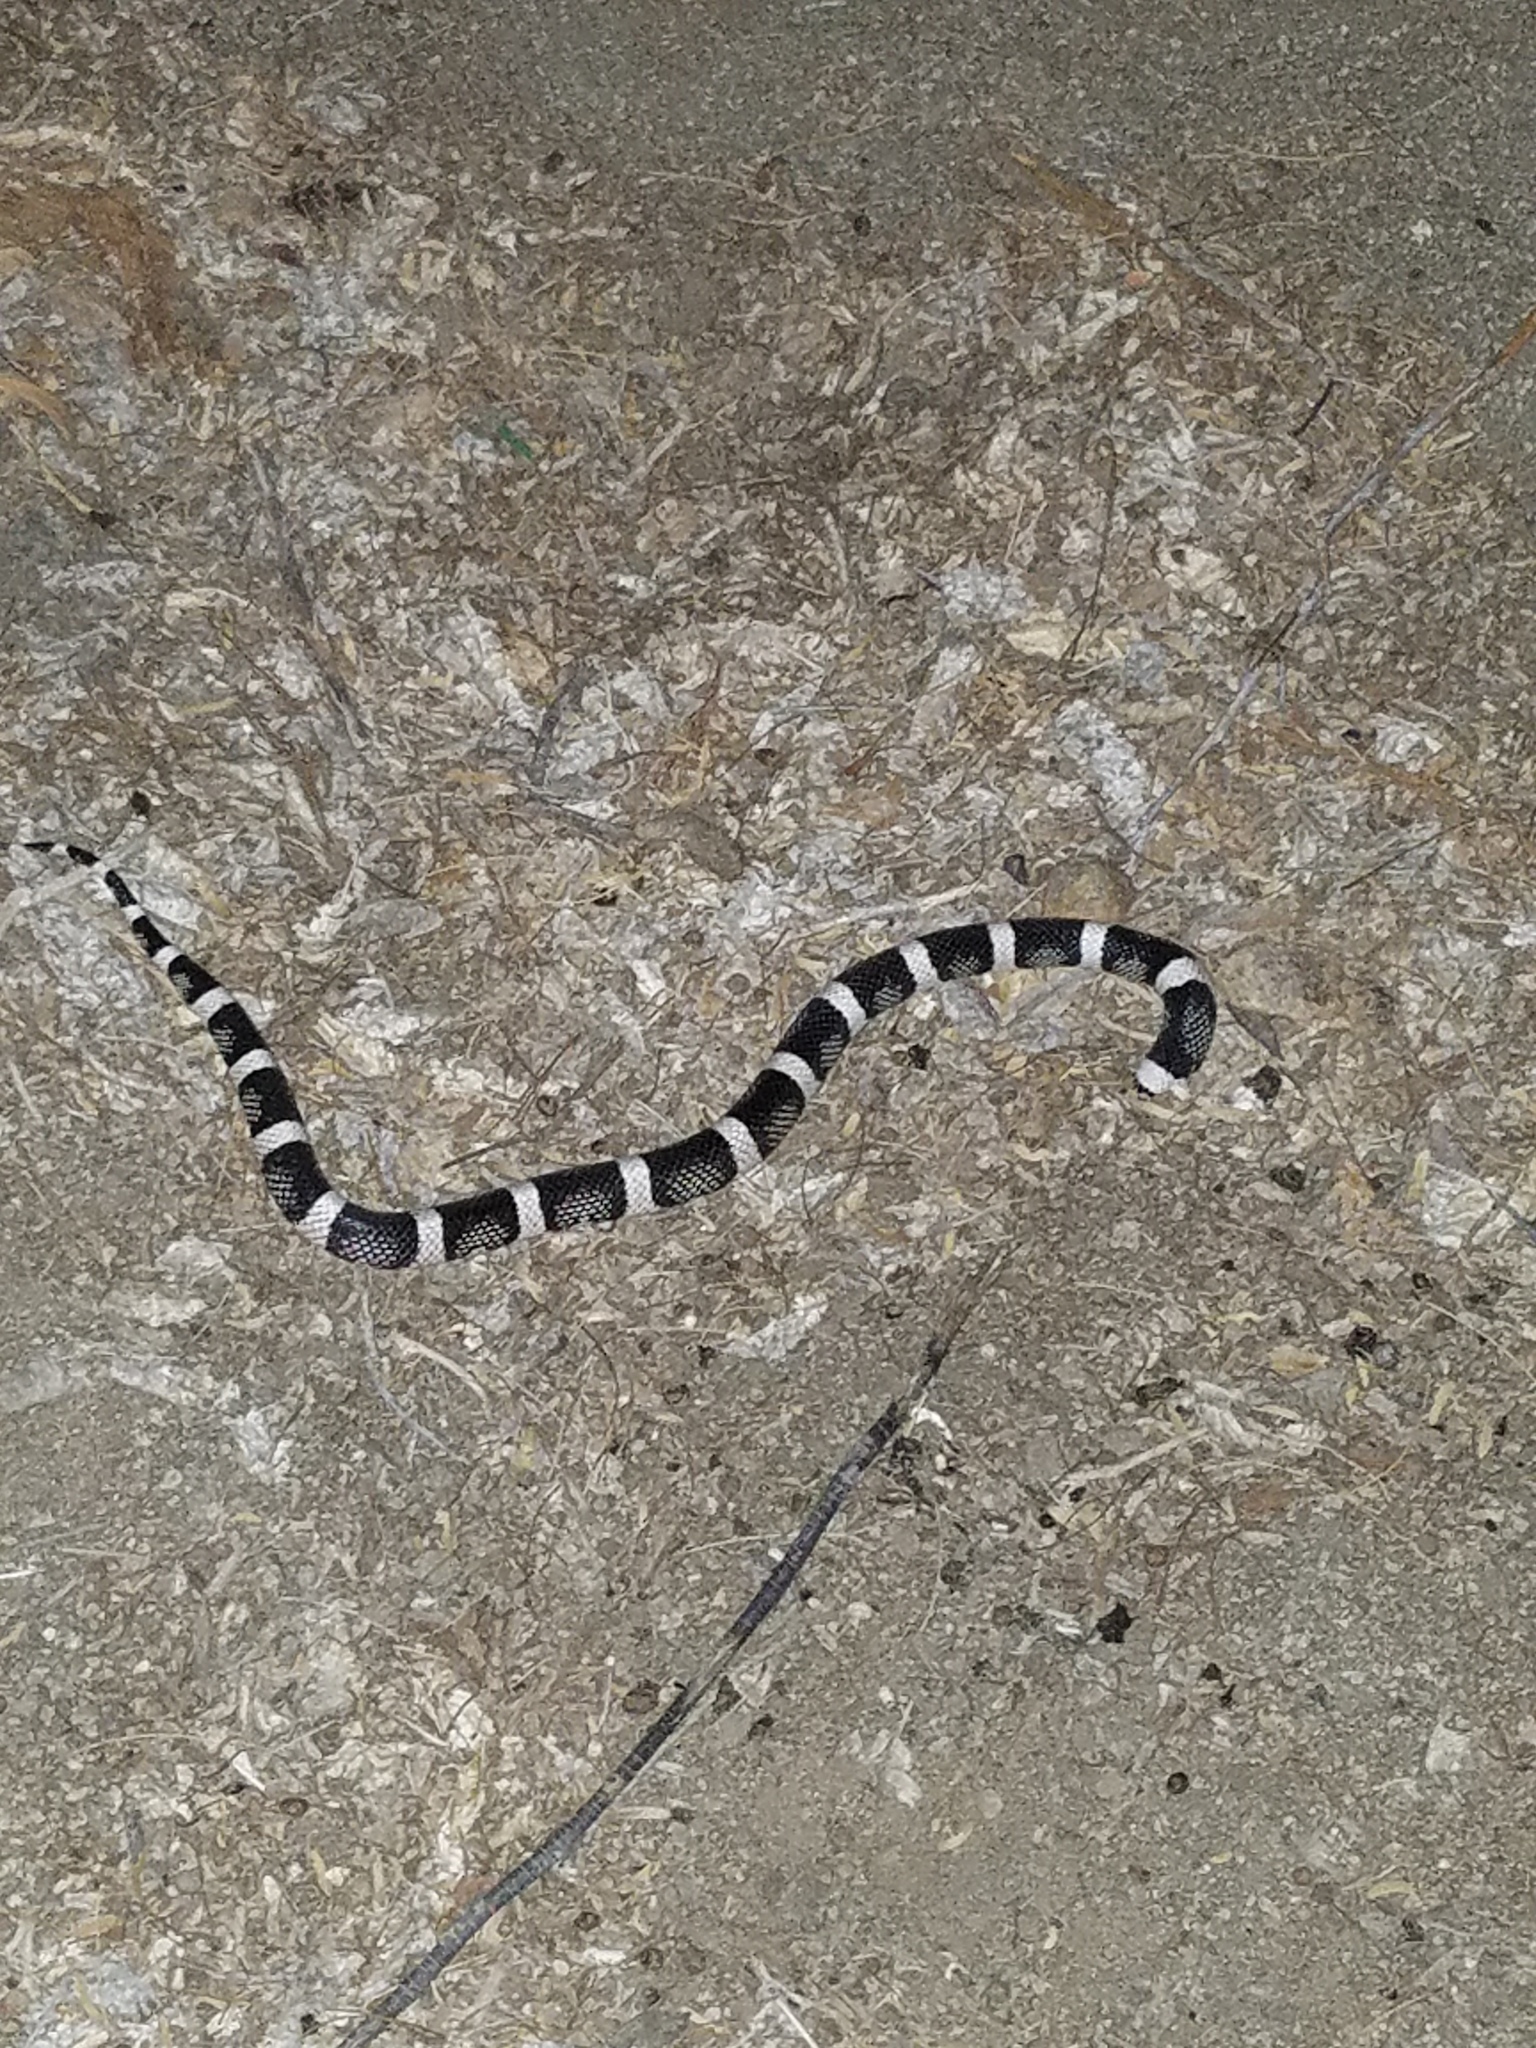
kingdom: Animalia
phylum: Chordata
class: Squamata
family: Colubridae
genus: Rhinocheilus
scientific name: Rhinocheilus lecontei
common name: Longnose snake
